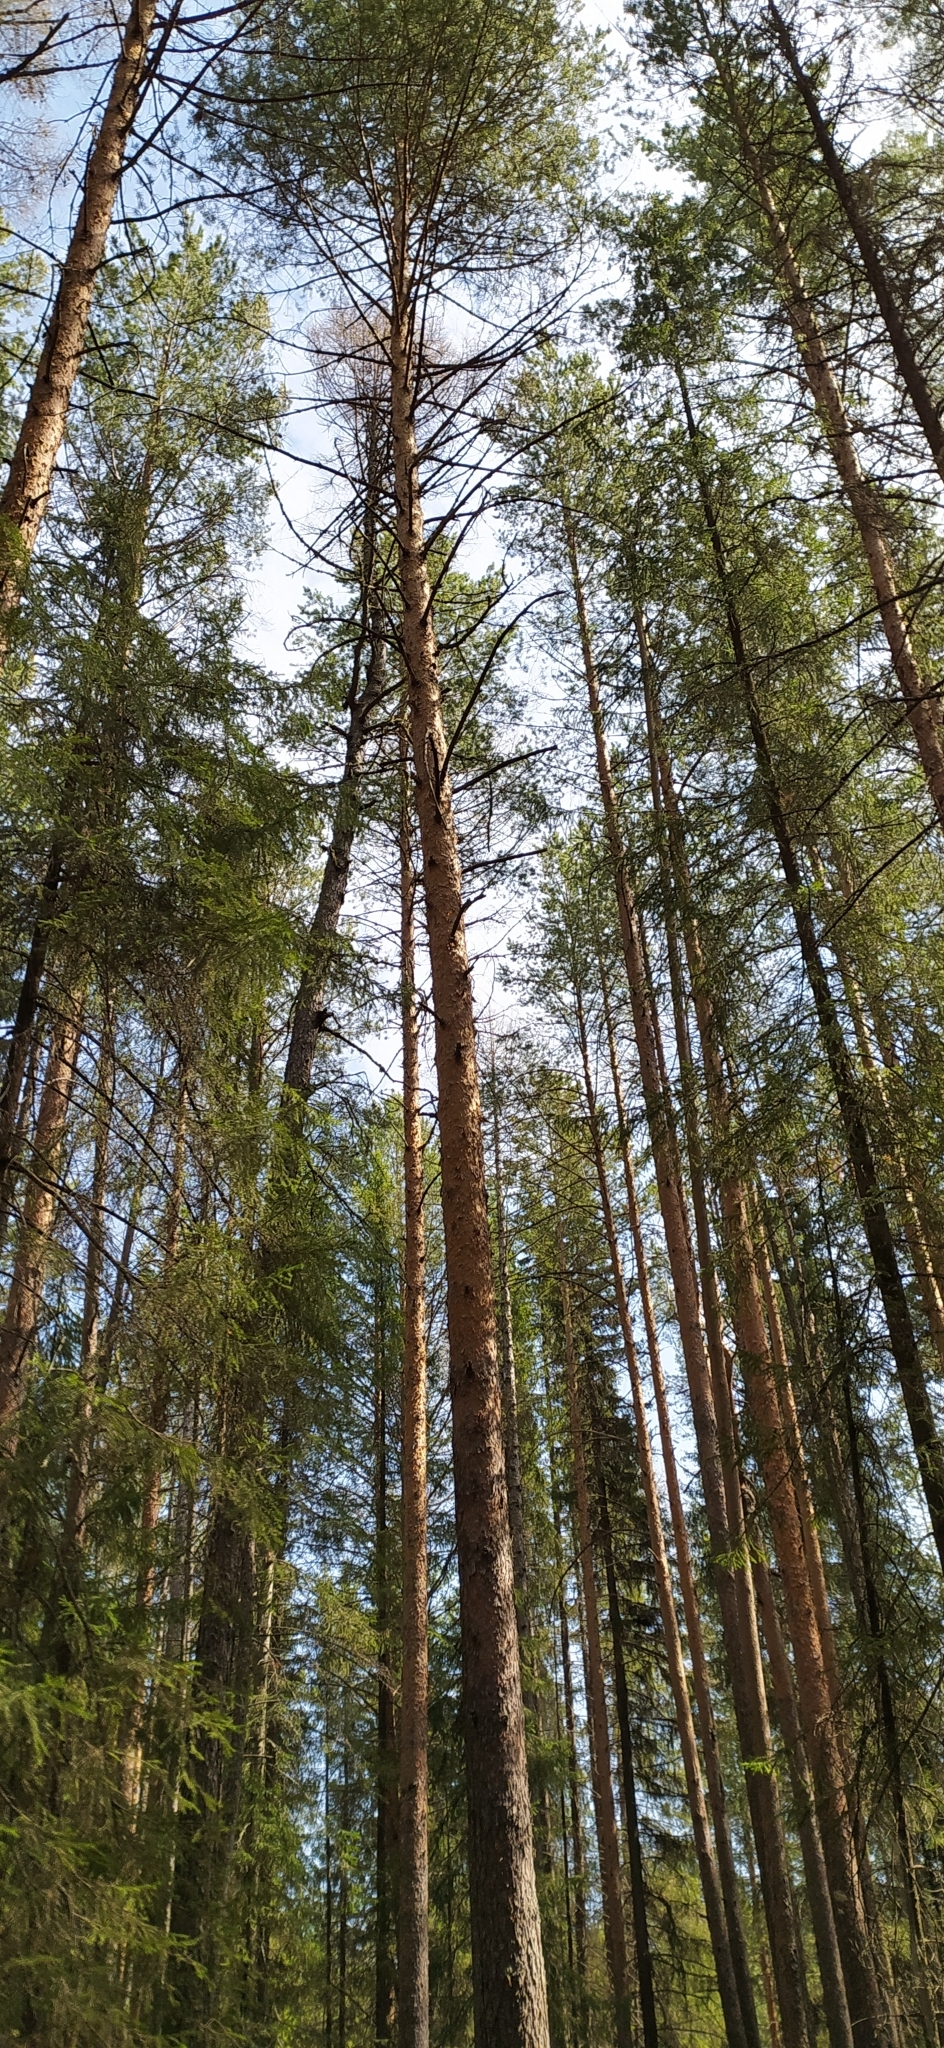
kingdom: Plantae
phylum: Tracheophyta
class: Pinopsida
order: Pinales
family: Pinaceae
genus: Pinus
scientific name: Pinus sylvestris
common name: Scots pine
